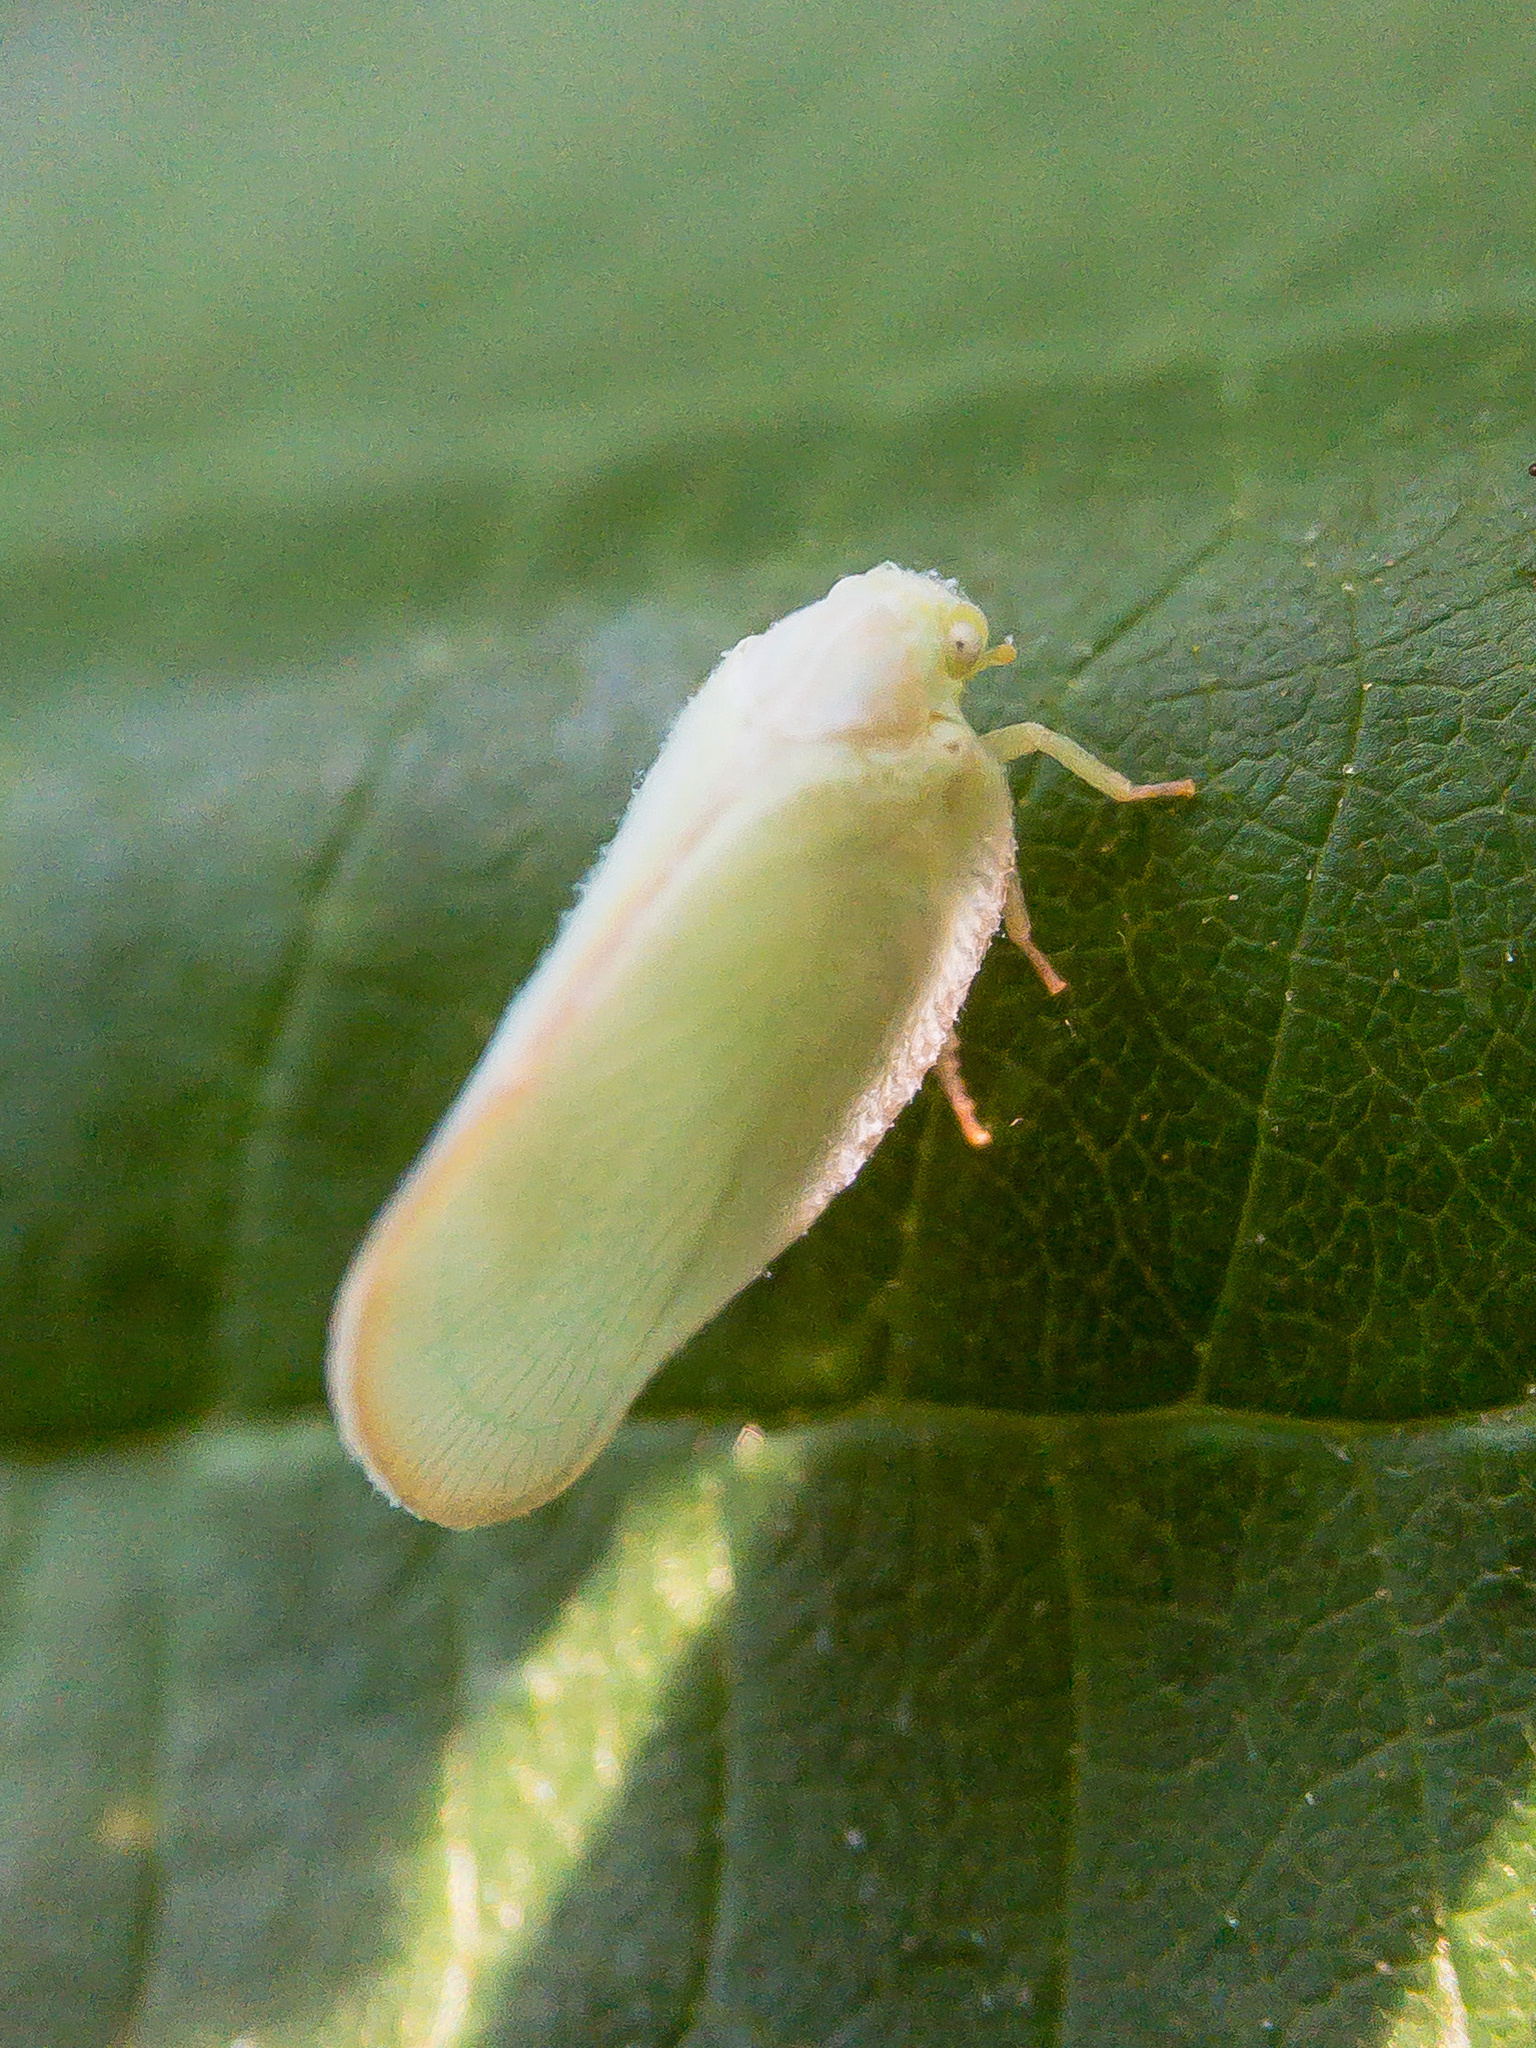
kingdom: Animalia
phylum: Arthropoda
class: Insecta
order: Hemiptera
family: Flatidae
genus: Ormenoides
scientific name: Ormenoides venusta
